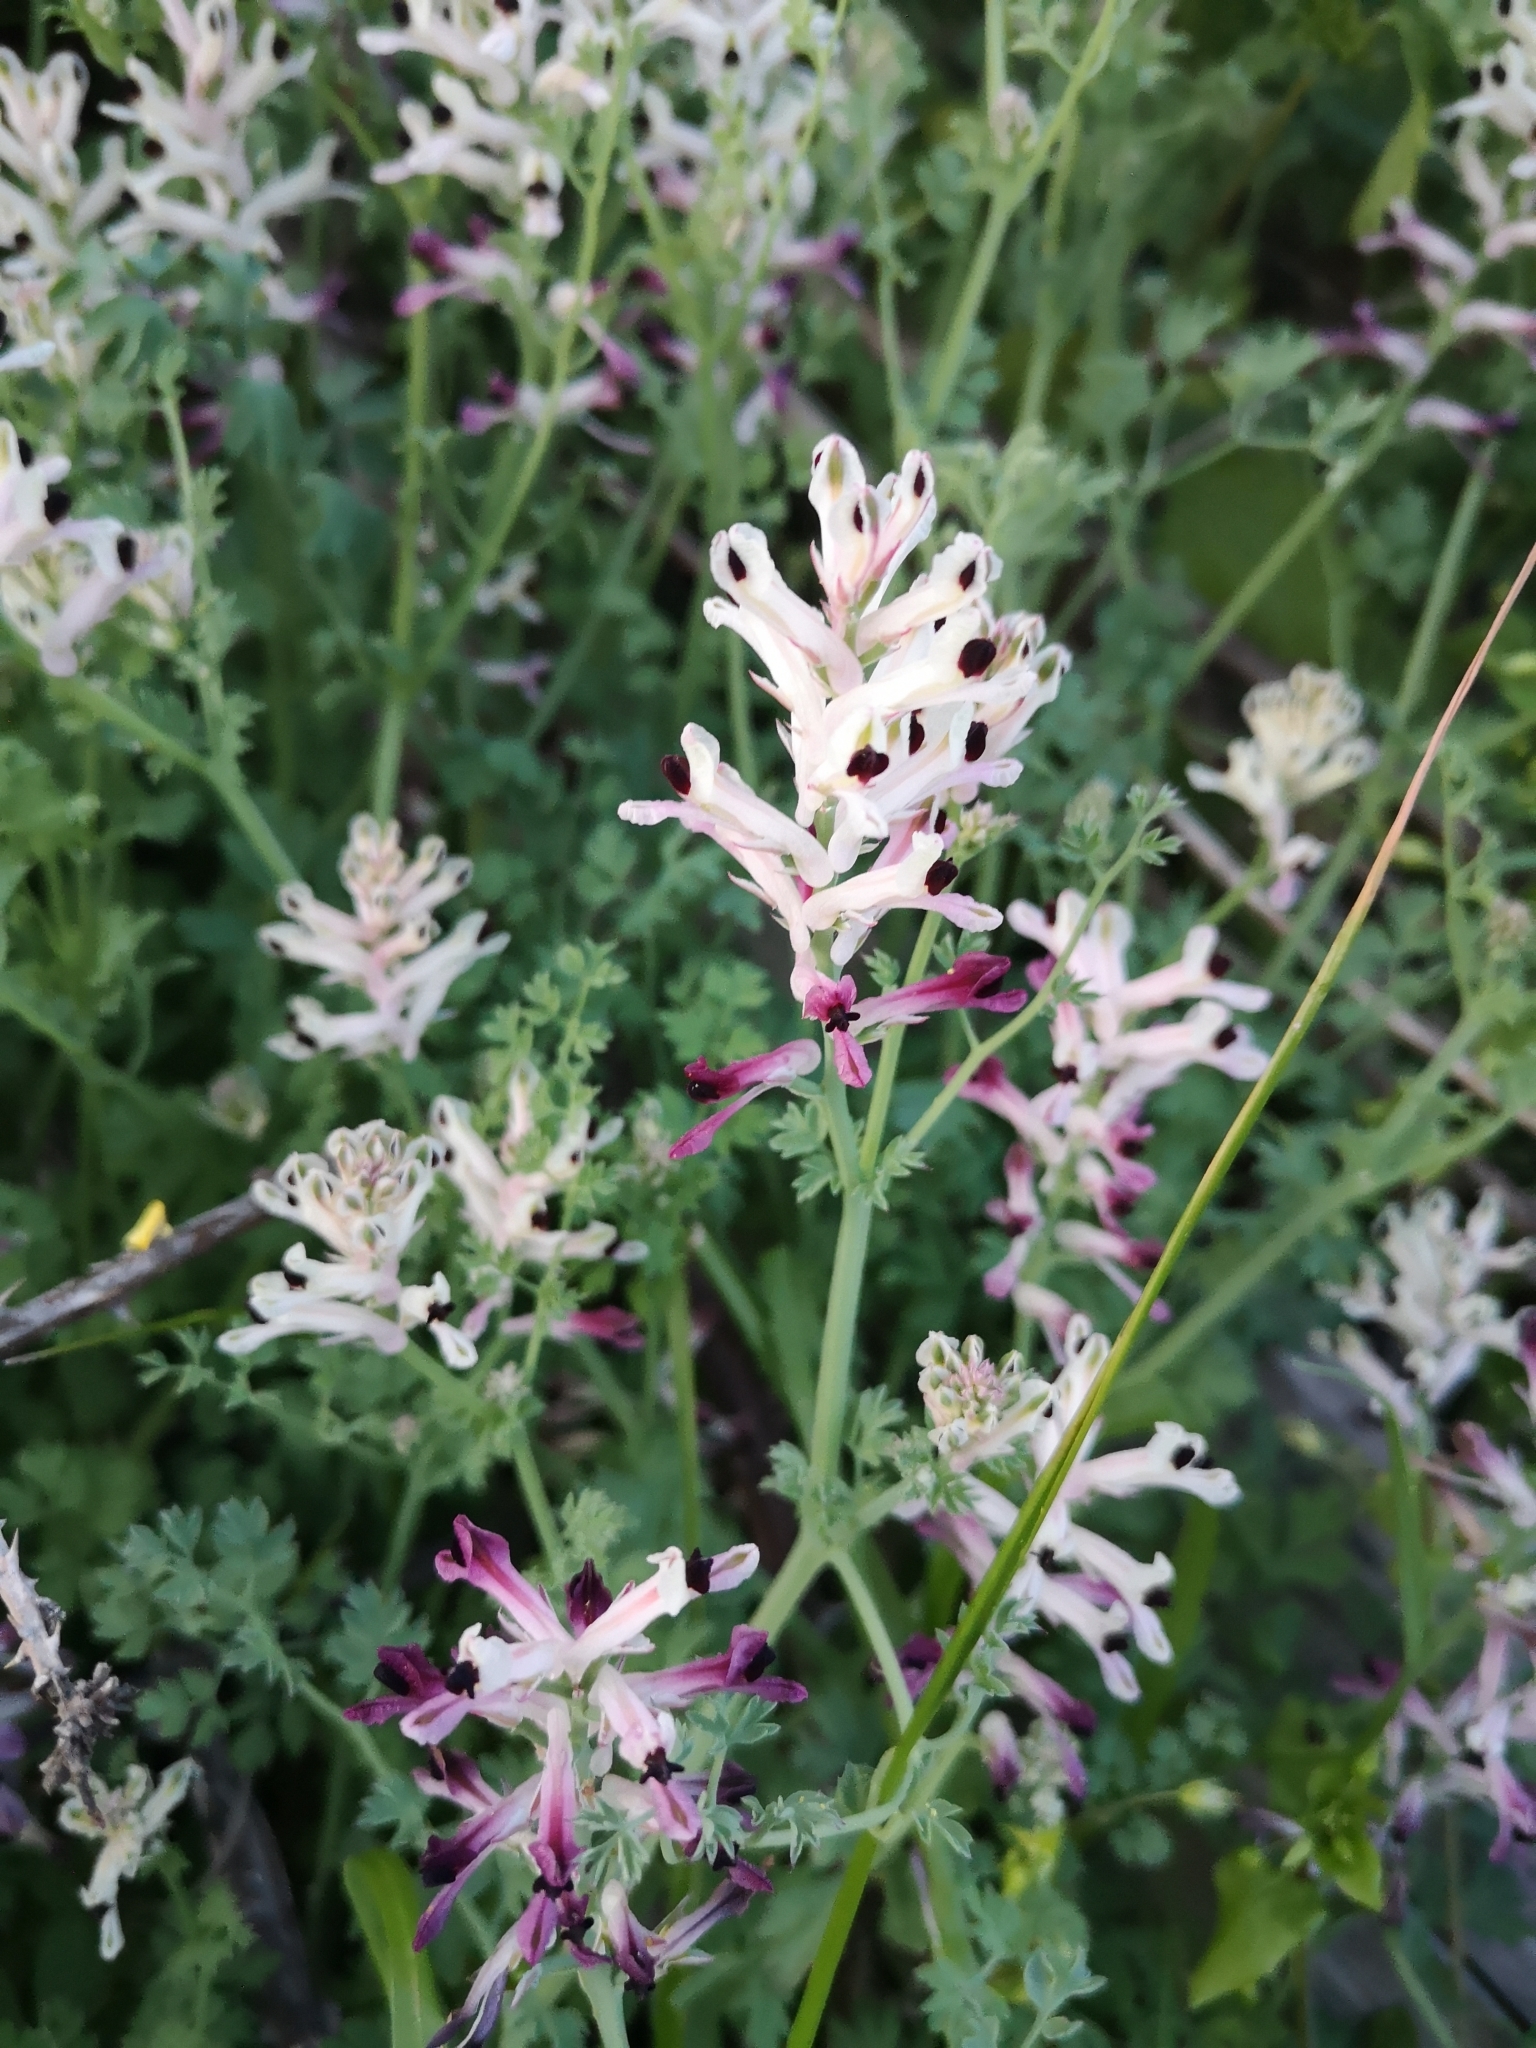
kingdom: Plantae
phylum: Tracheophyta
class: Magnoliopsida
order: Ranunculales
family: Papaveraceae
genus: Fumaria
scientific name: Fumaria agraria
